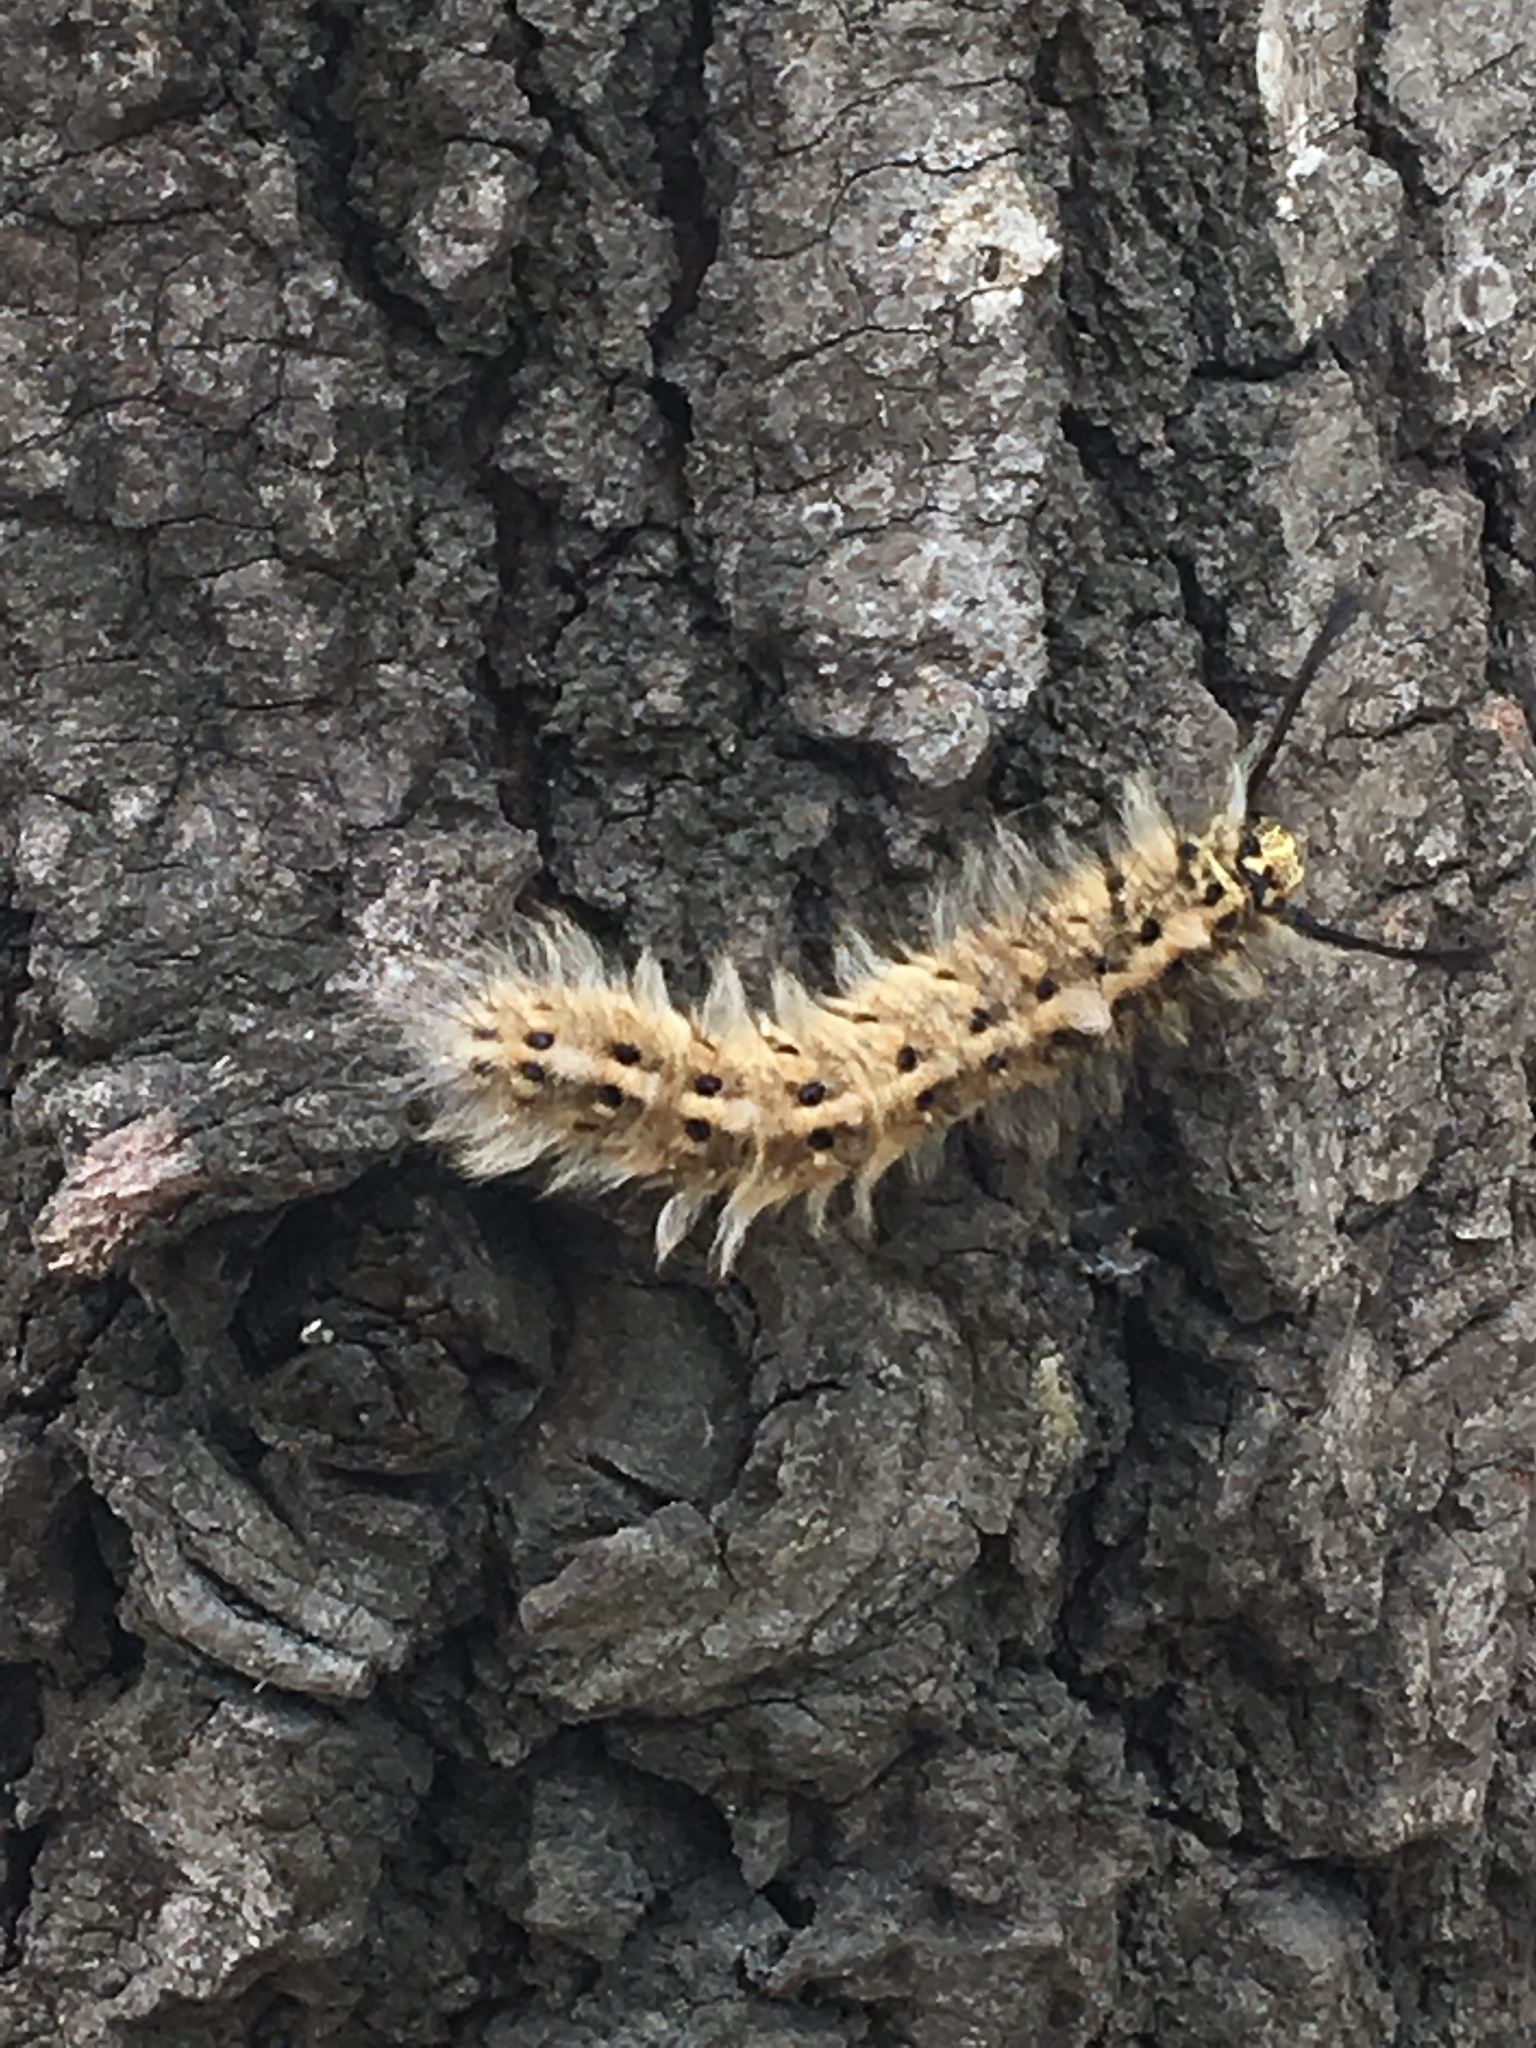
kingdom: Animalia
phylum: Arthropoda
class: Insecta
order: Lepidoptera
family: Lasiocampidae
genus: Trabala
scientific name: Trabala vishnou
